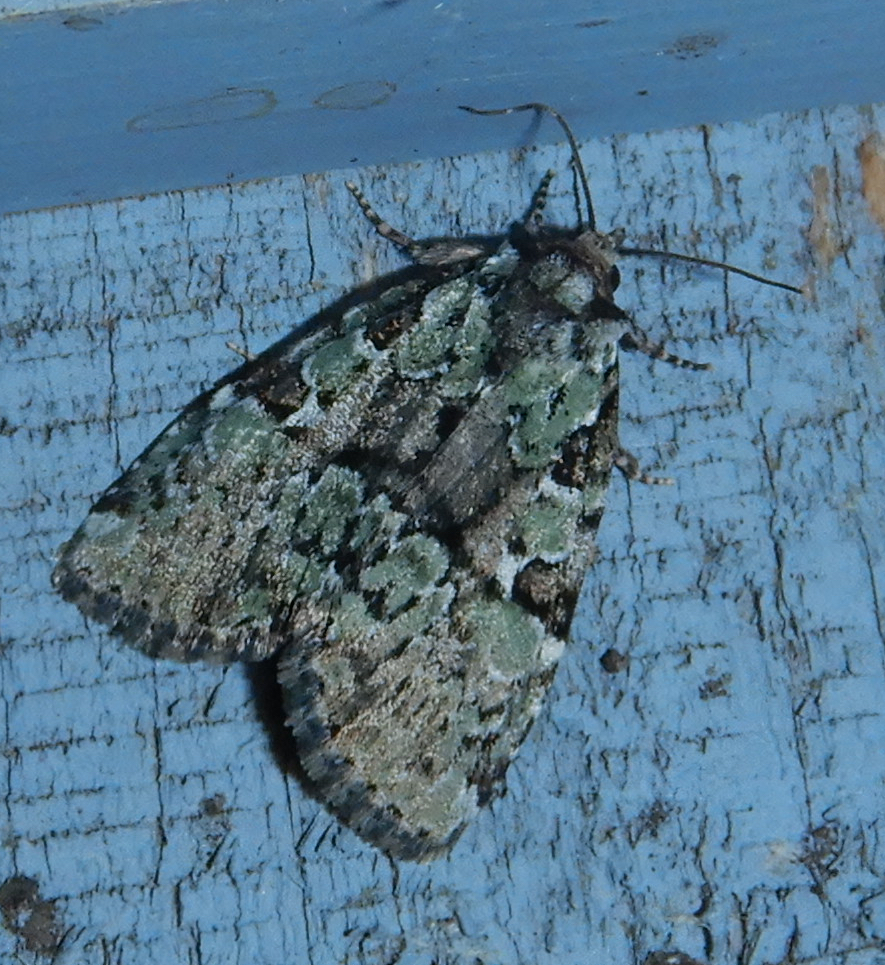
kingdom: Animalia
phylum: Arthropoda
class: Insecta
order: Lepidoptera
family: Noctuidae
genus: Leuconycta
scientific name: Leuconycta lepidula
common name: Marbled-green leuconycta moth
